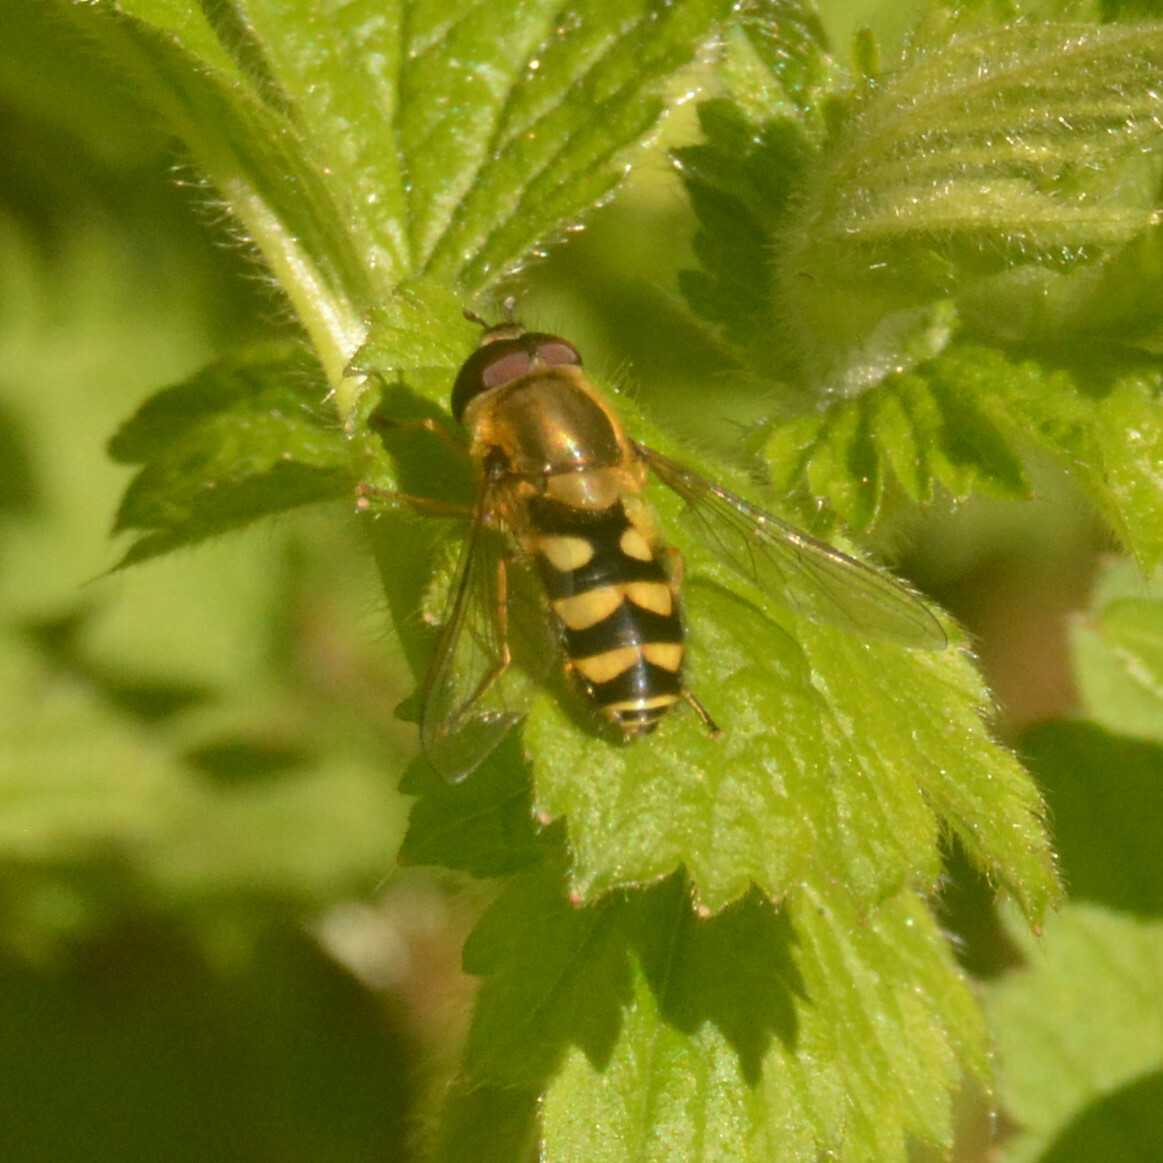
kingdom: Animalia
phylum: Arthropoda
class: Insecta
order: Diptera
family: Syrphidae
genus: Syrphus
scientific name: Syrphus
